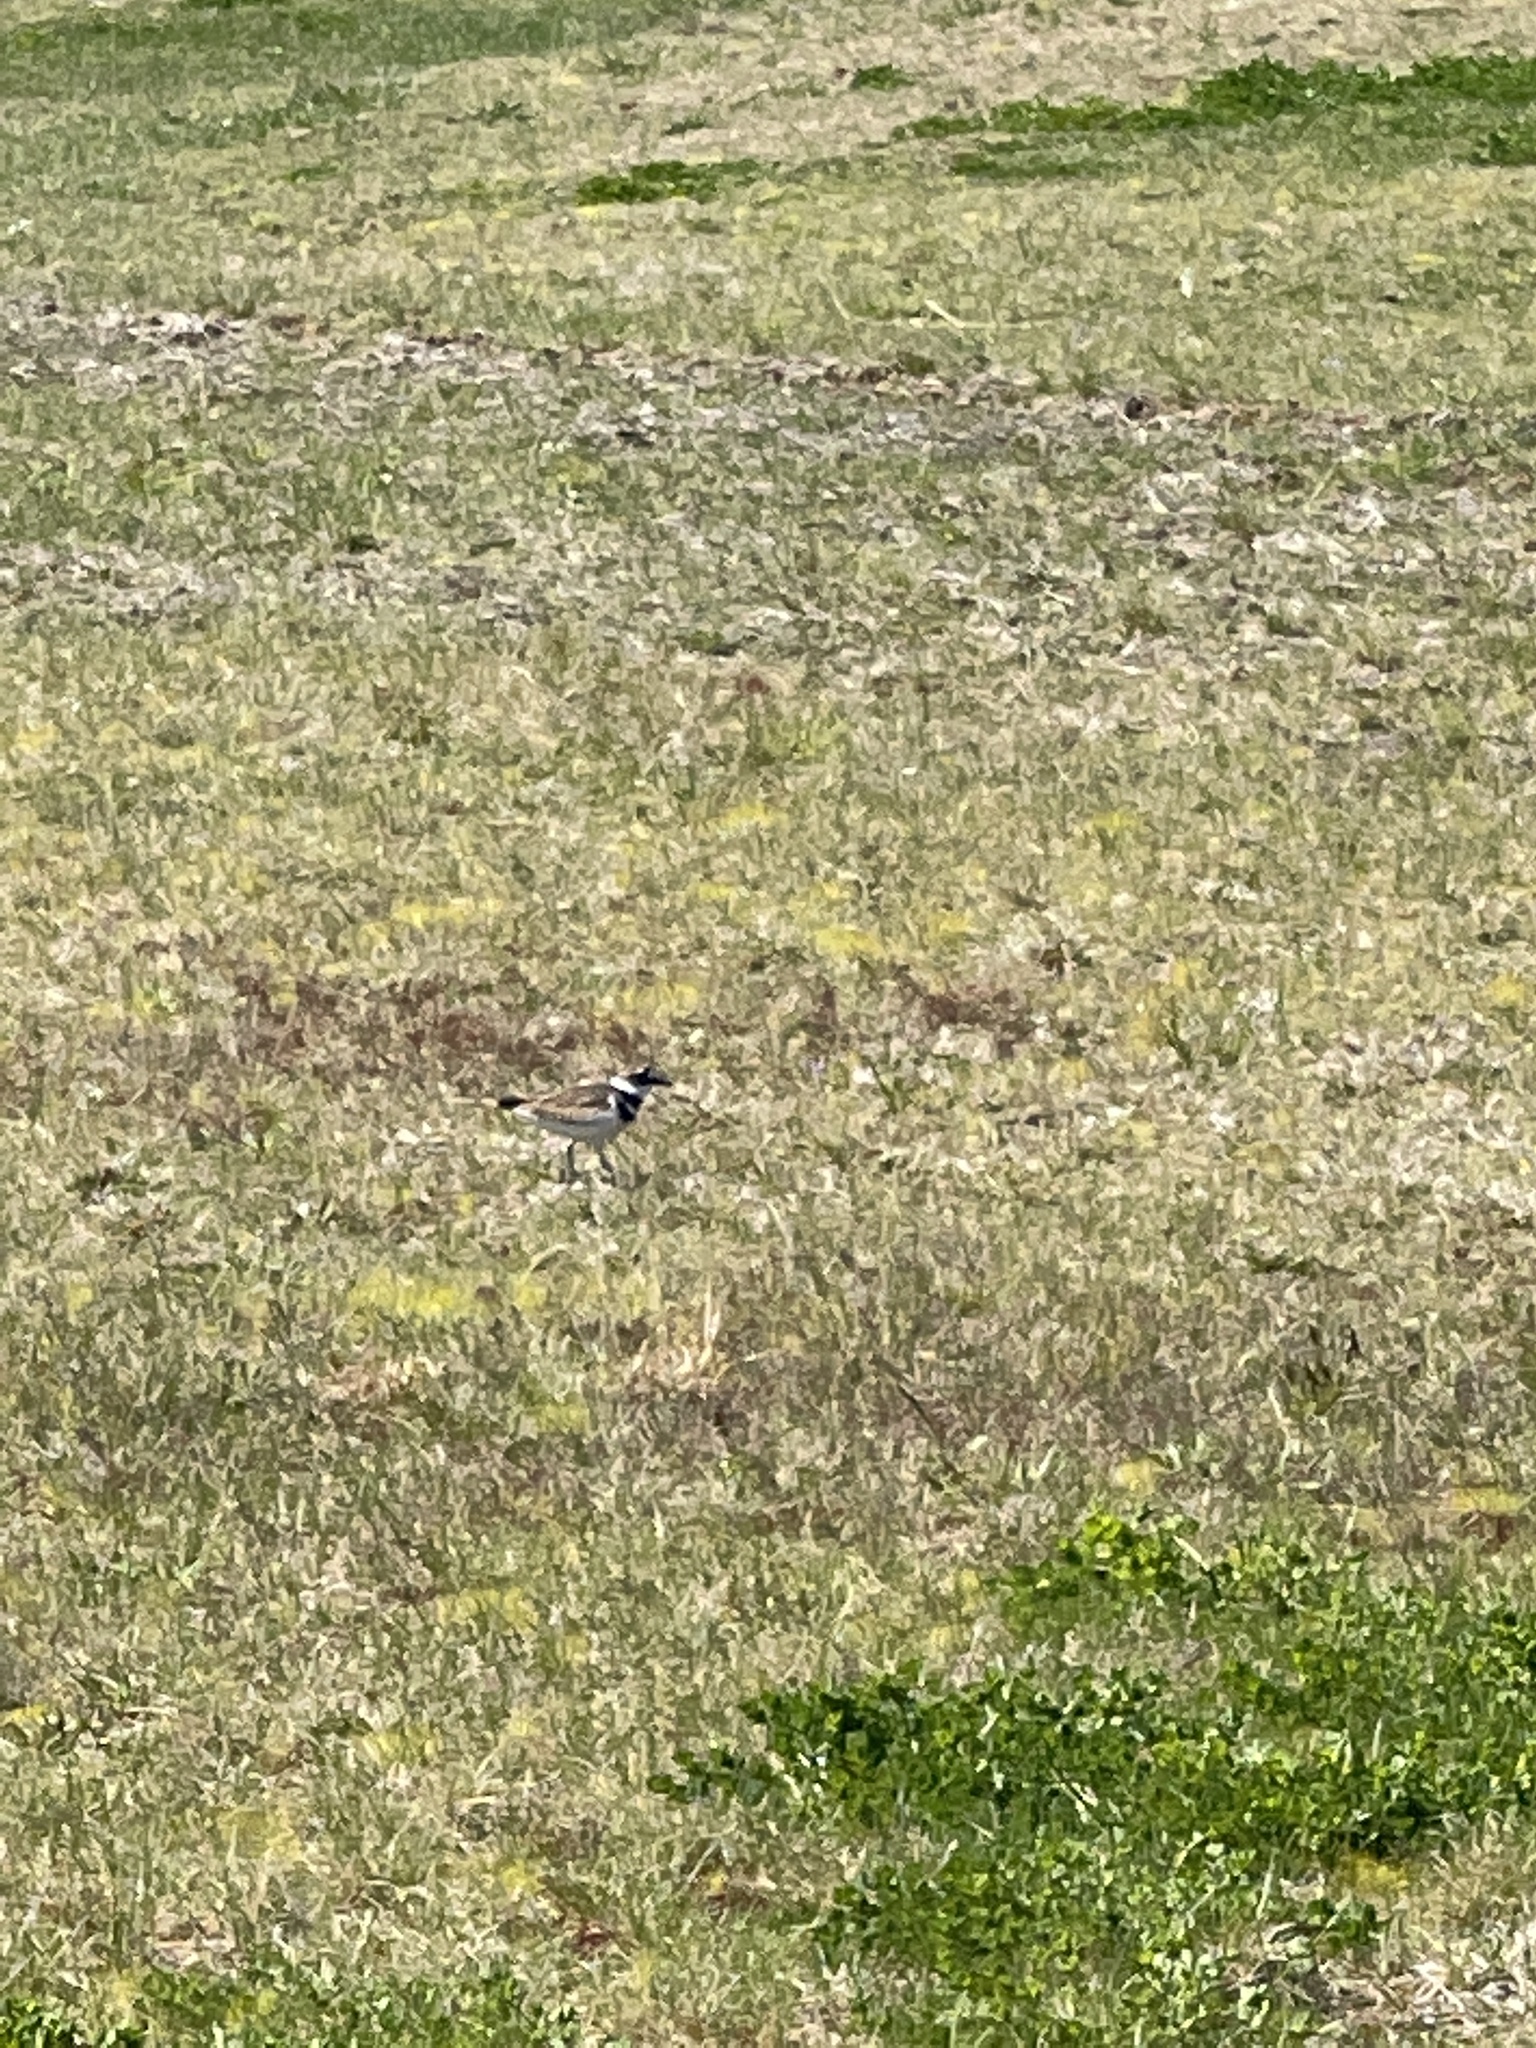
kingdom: Animalia
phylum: Chordata
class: Aves
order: Charadriiformes
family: Charadriidae
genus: Charadrius
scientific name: Charadrius vociferus
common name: Killdeer
